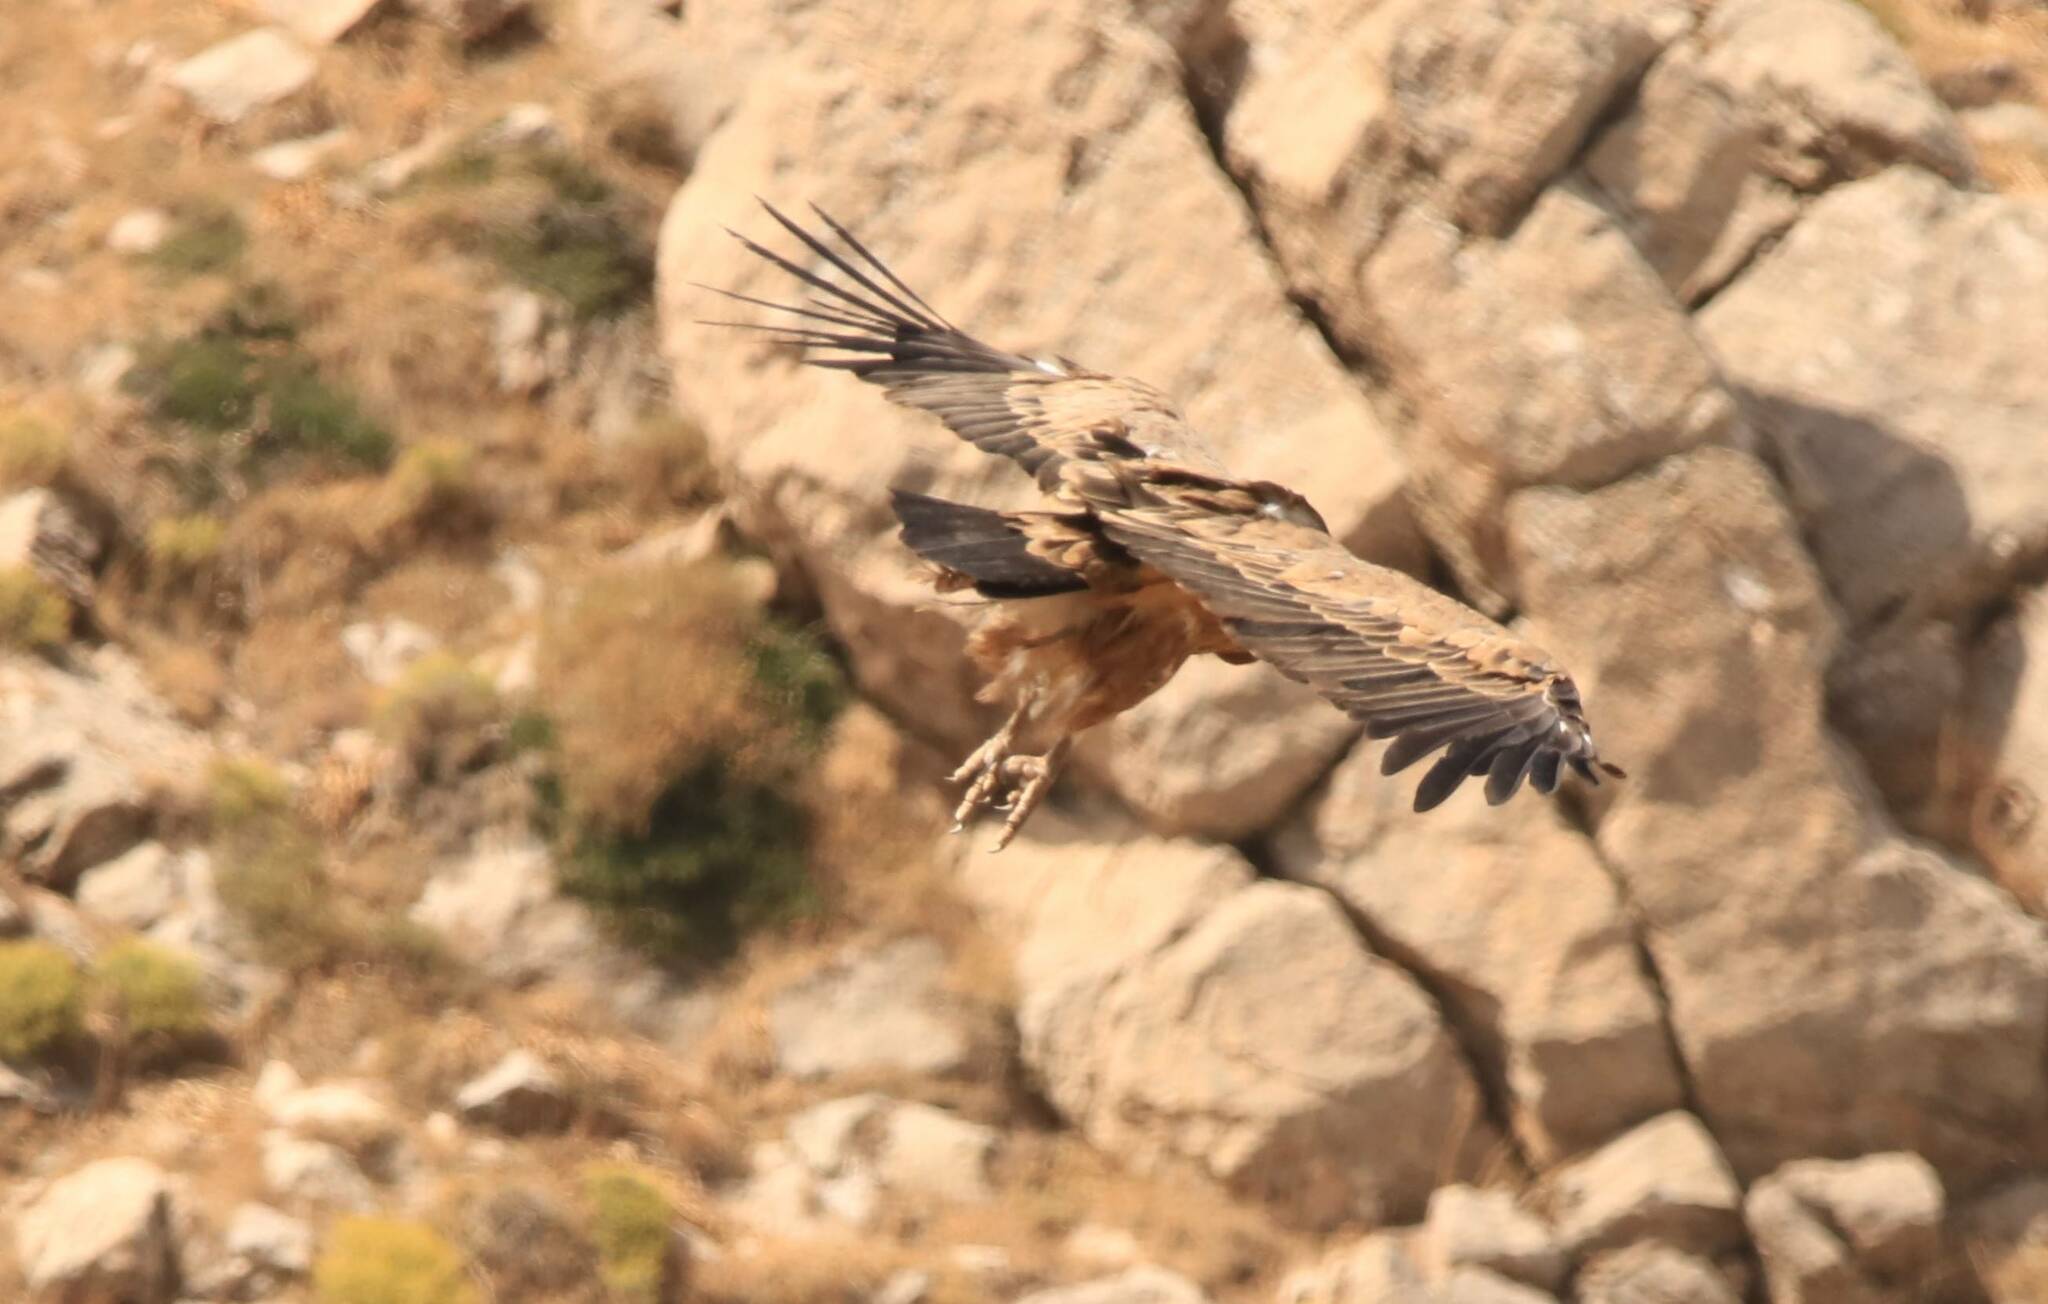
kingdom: Animalia
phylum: Chordata
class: Aves
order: Accipitriformes
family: Accipitridae
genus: Gyps
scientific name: Gyps fulvus
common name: Griffon vulture
